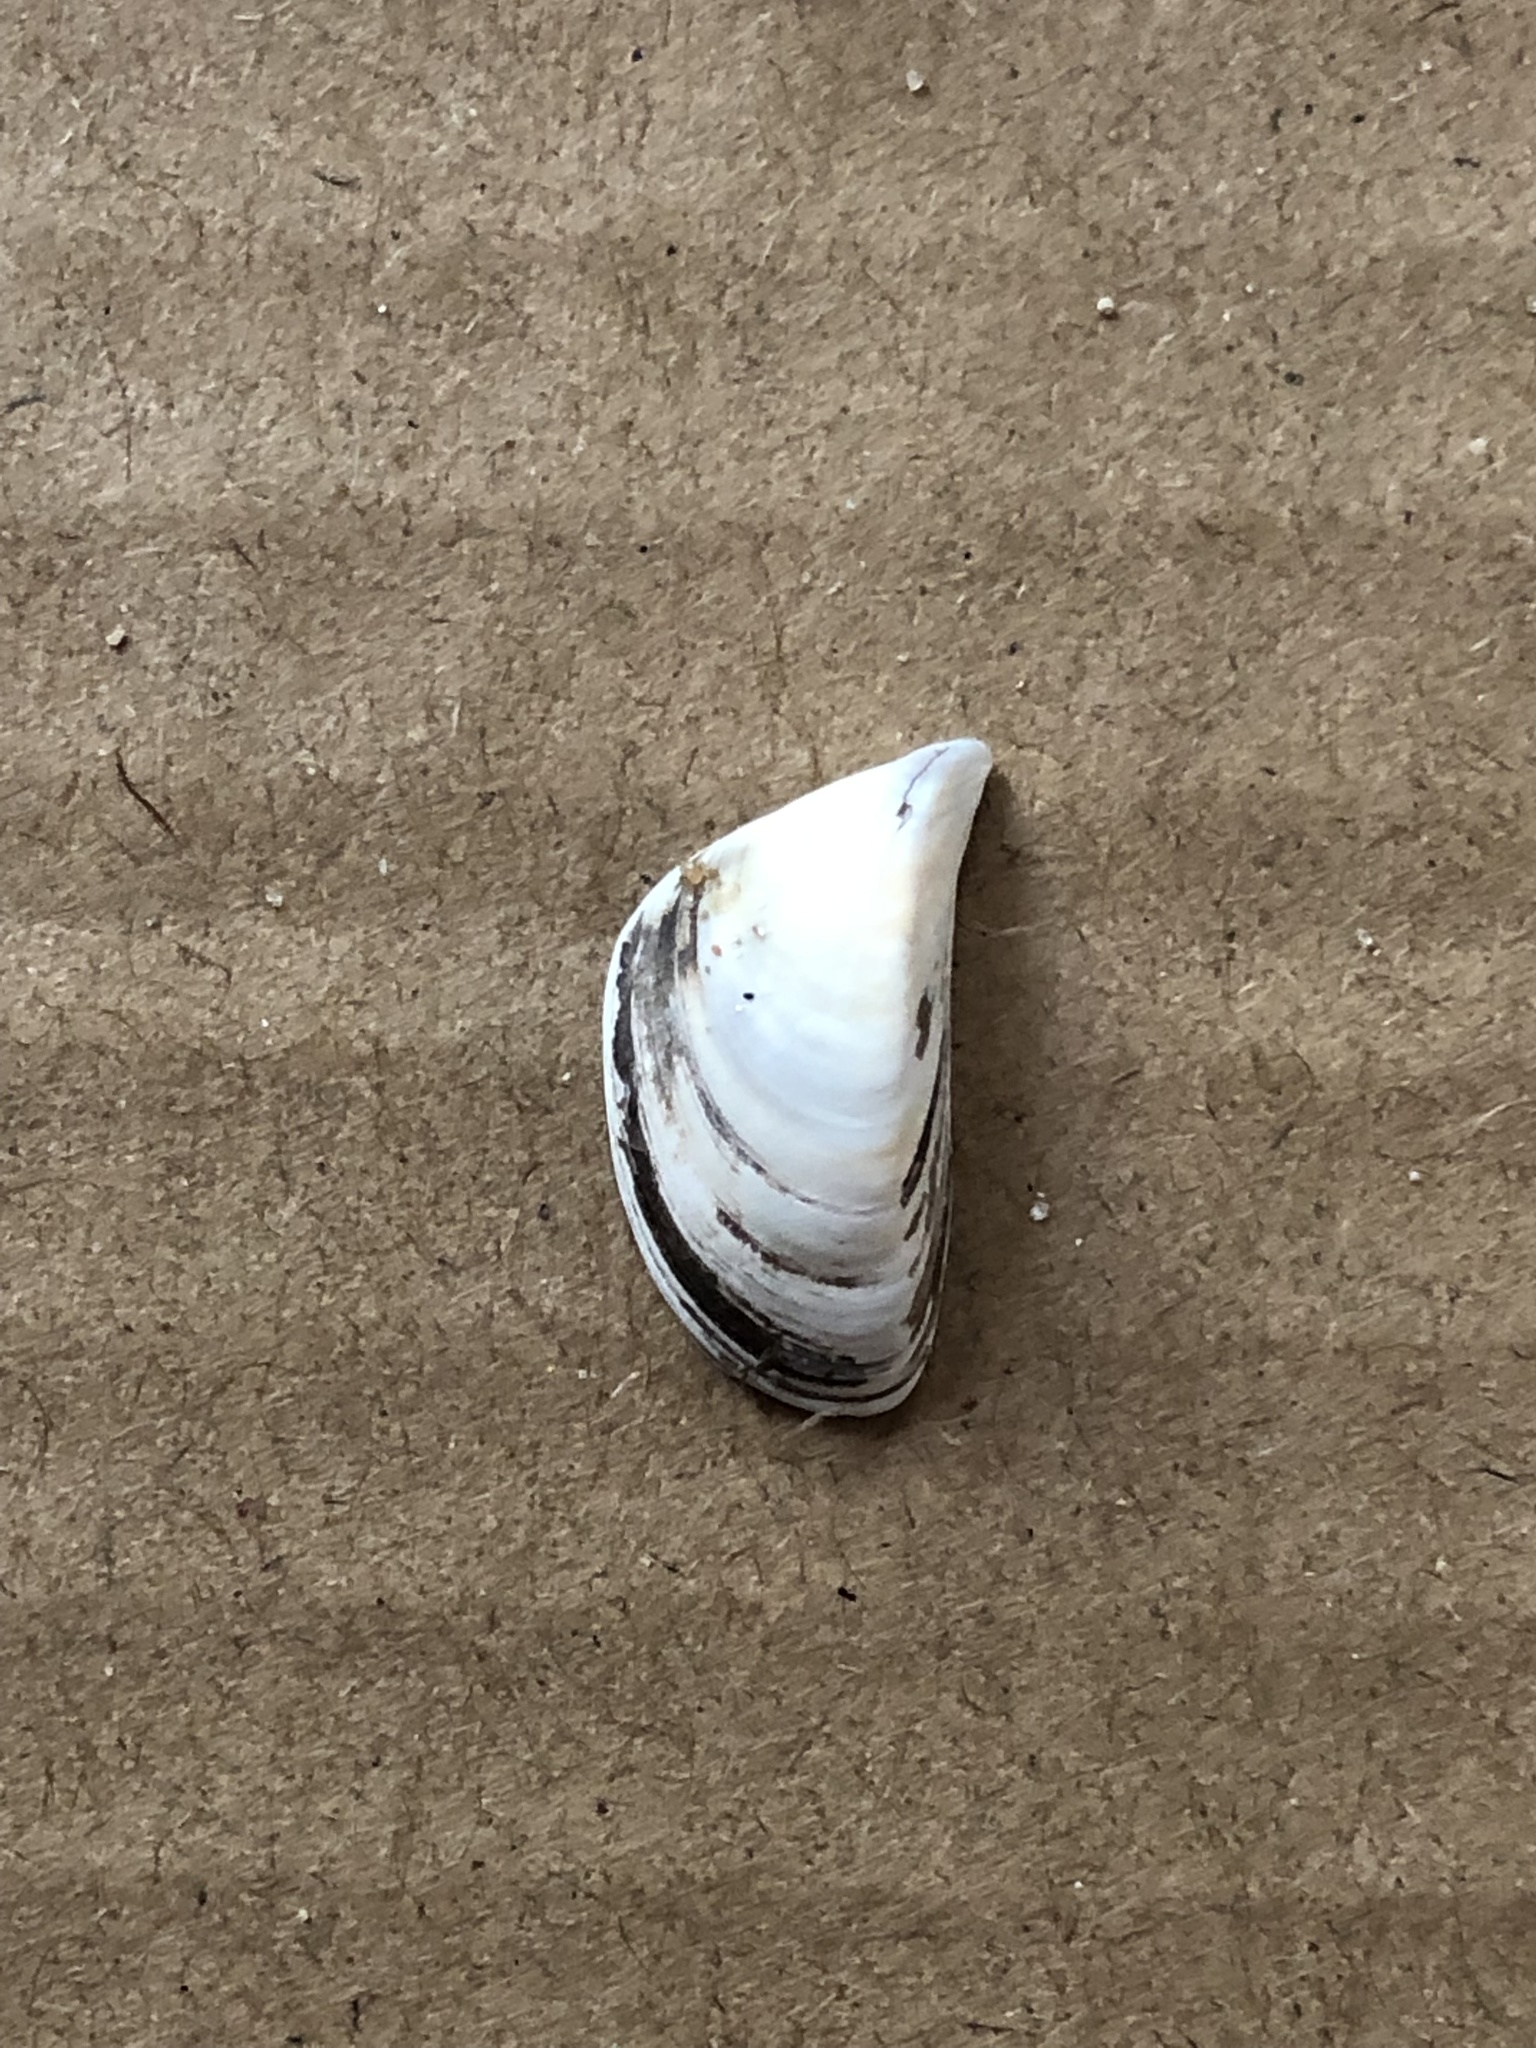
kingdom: Animalia
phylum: Mollusca
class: Bivalvia
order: Myida
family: Dreissenidae
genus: Dreissena
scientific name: Dreissena polymorpha
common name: Zebra mussel
